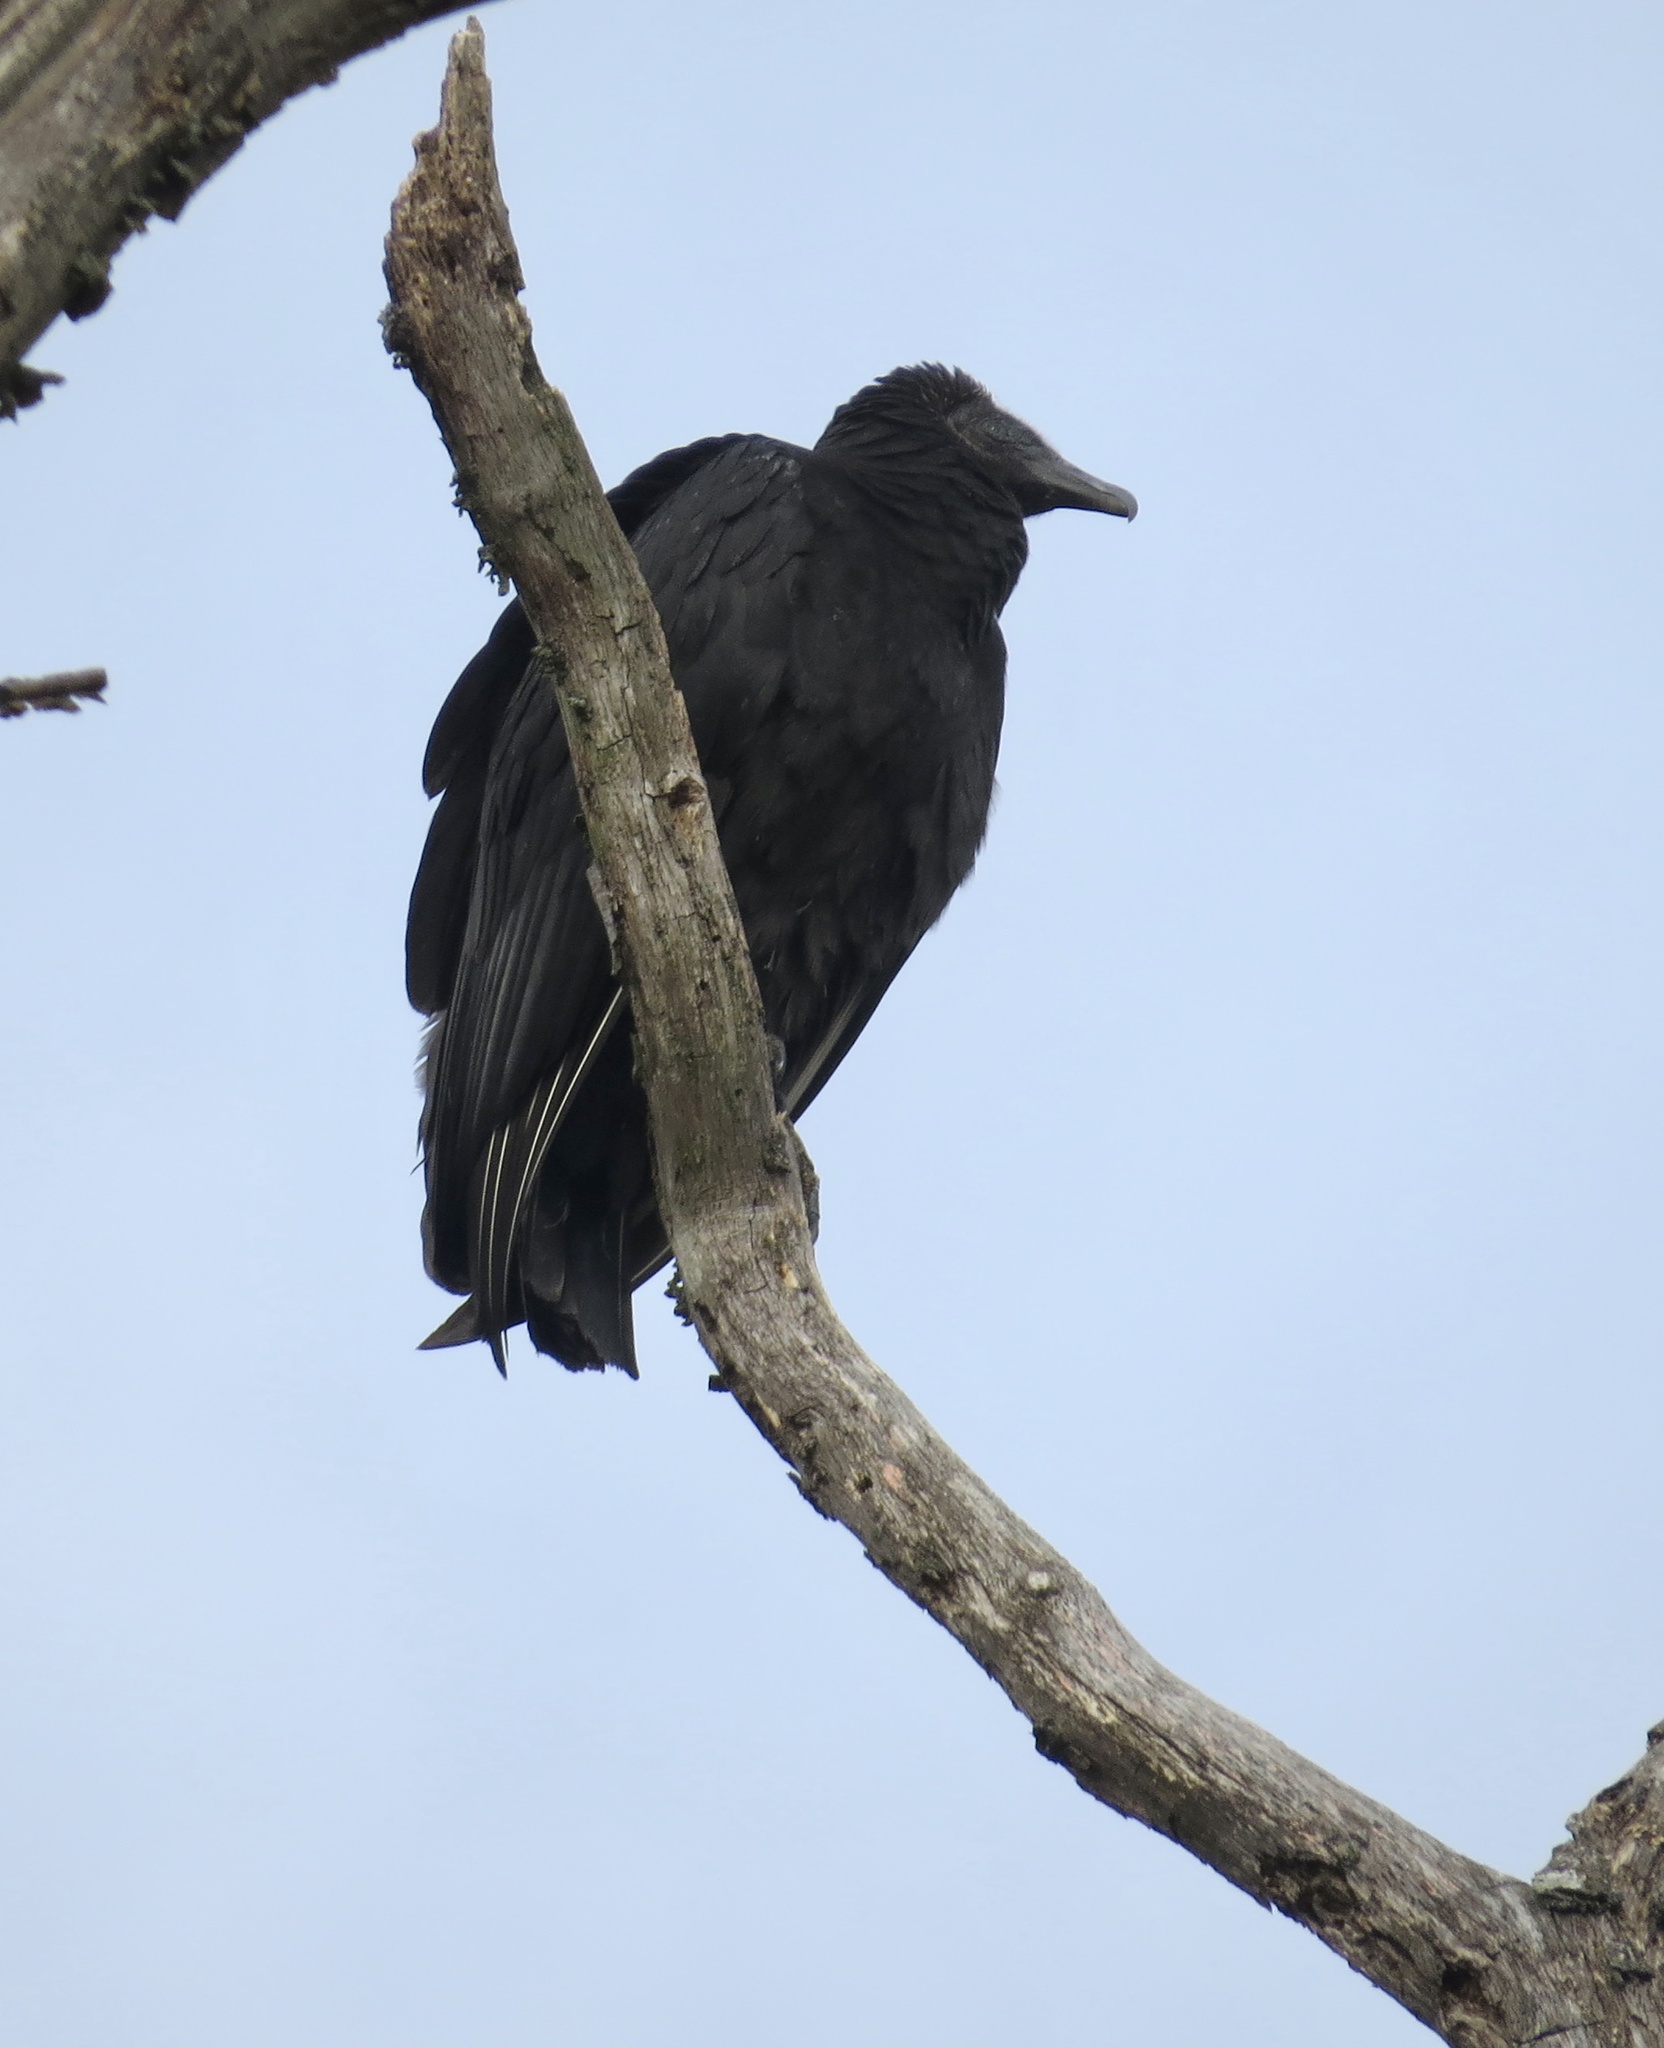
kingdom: Animalia
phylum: Chordata
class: Aves
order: Accipitriformes
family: Cathartidae
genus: Coragyps
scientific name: Coragyps atratus
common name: Black vulture
